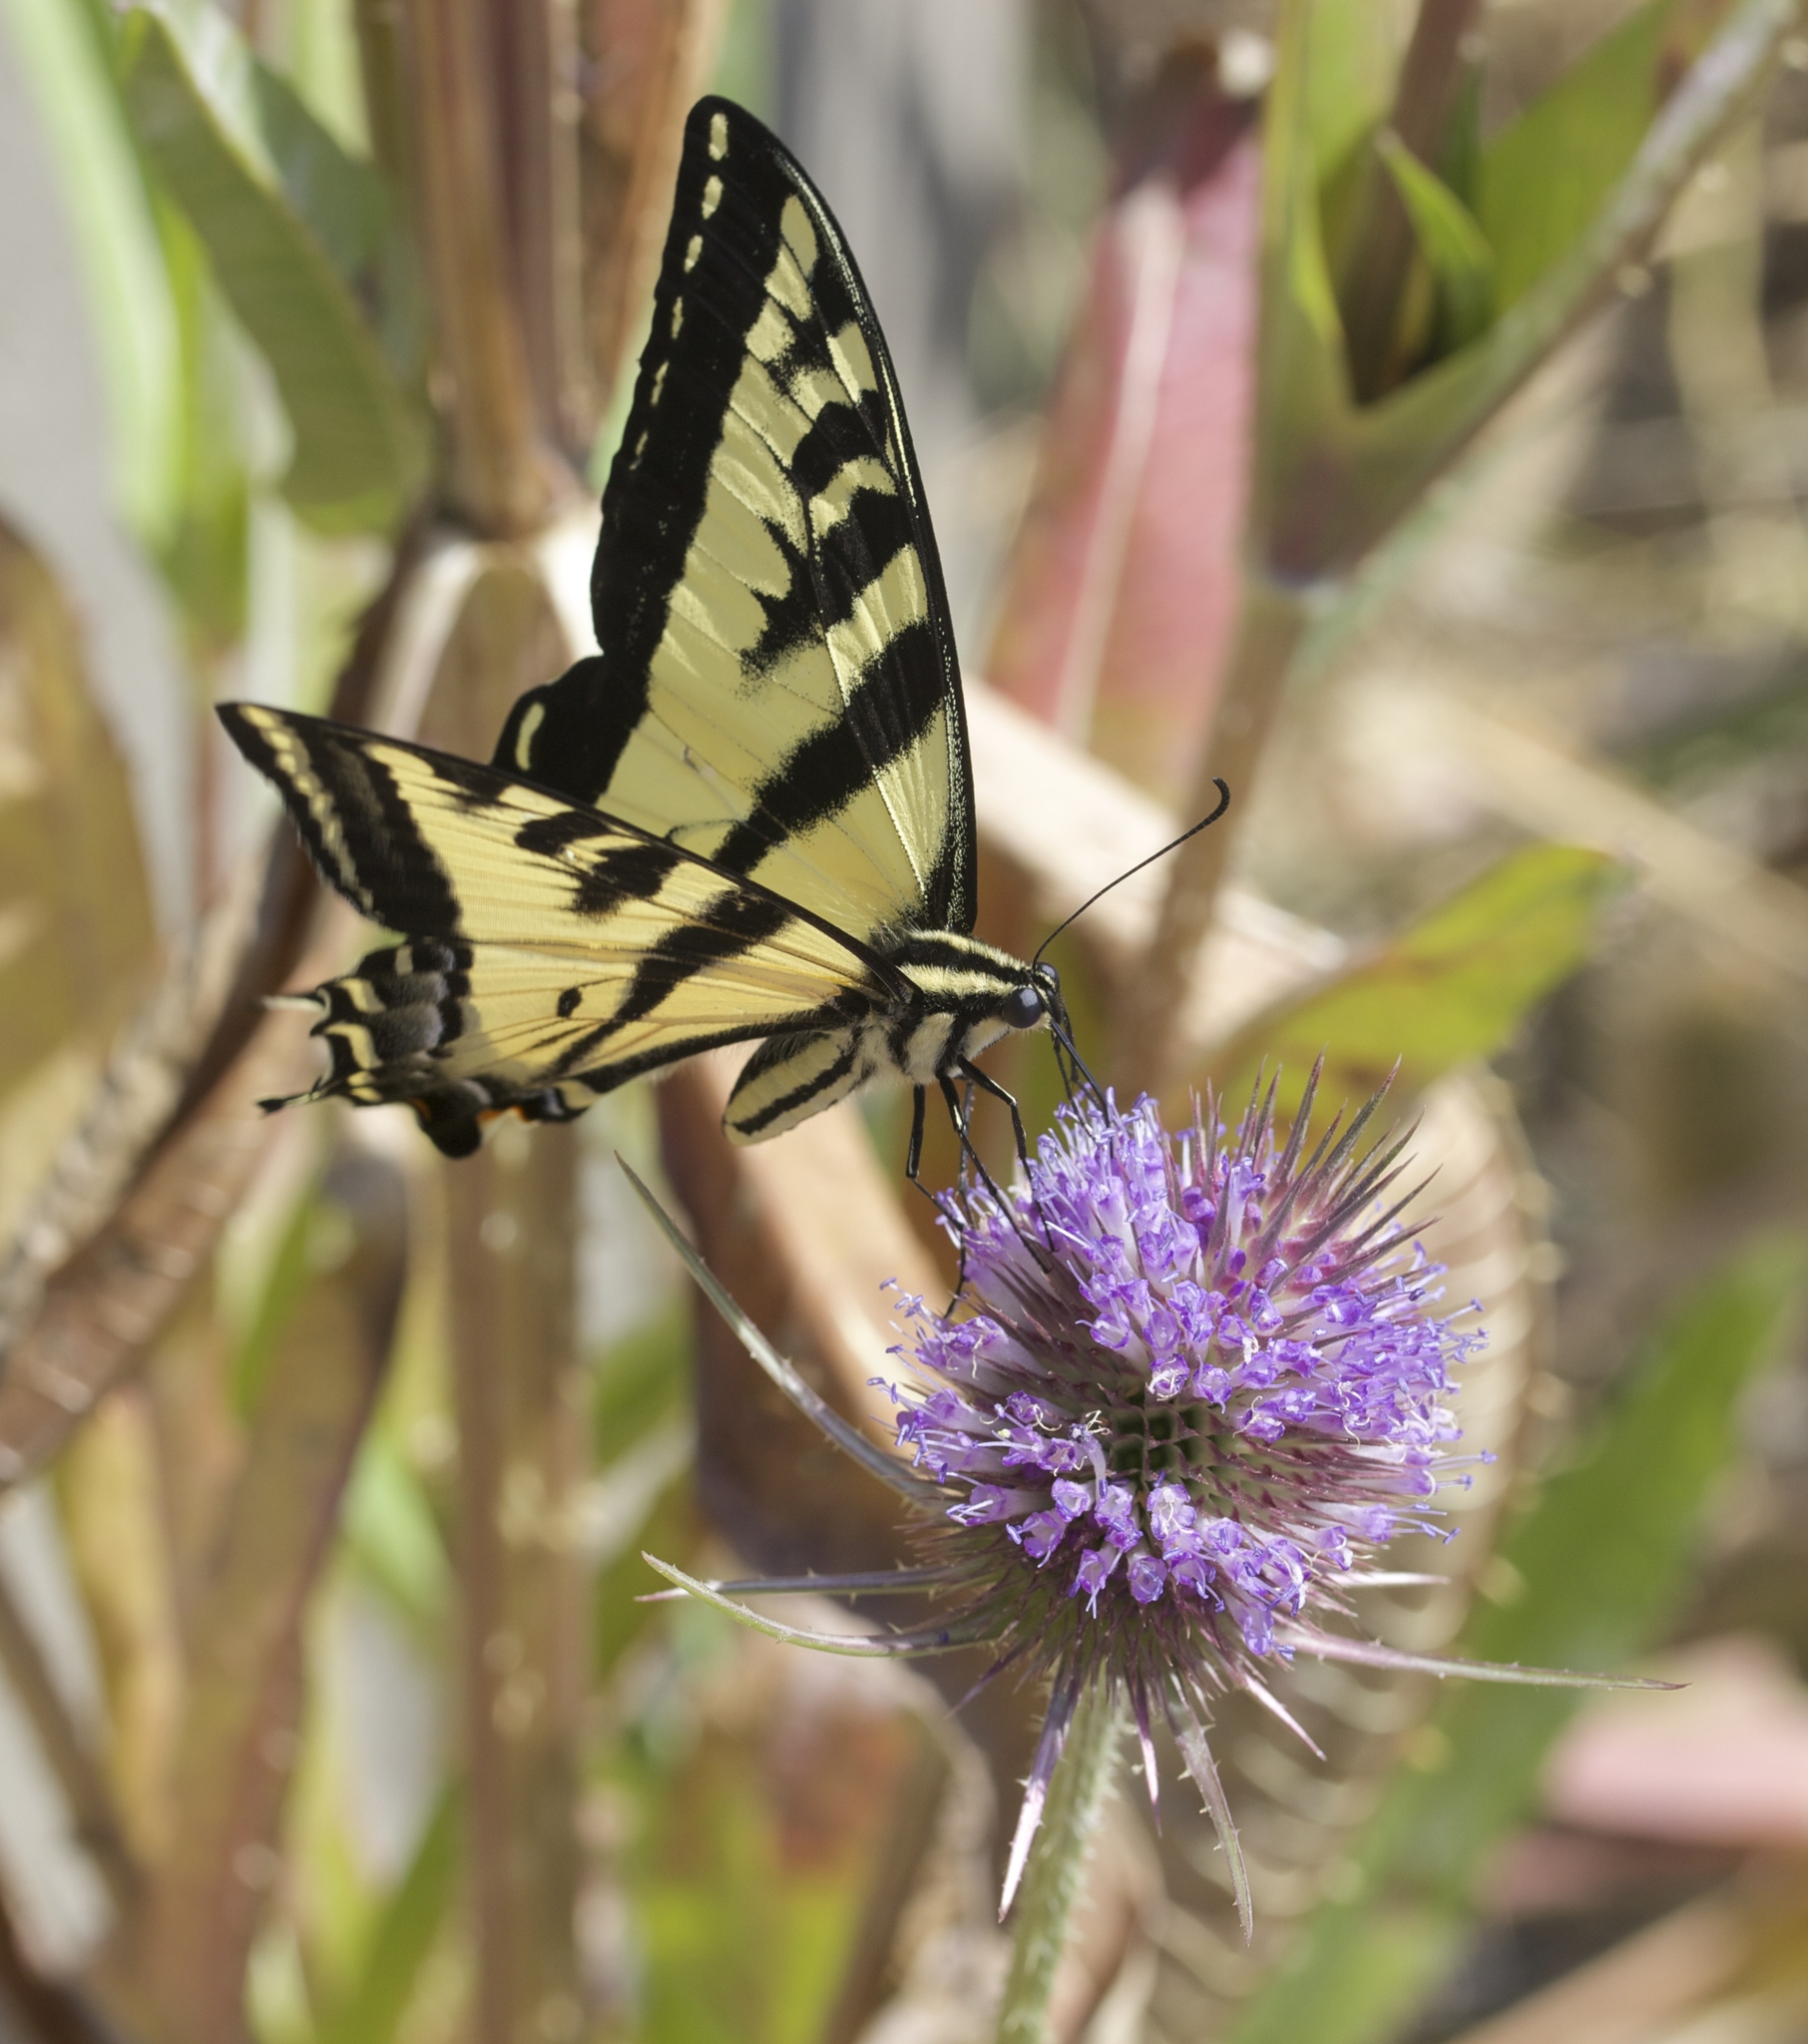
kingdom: Animalia
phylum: Arthropoda
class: Insecta
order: Lepidoptera
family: Papilionidae
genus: Papilio
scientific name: Papilio rutulus
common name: Western tiger swallowtail
